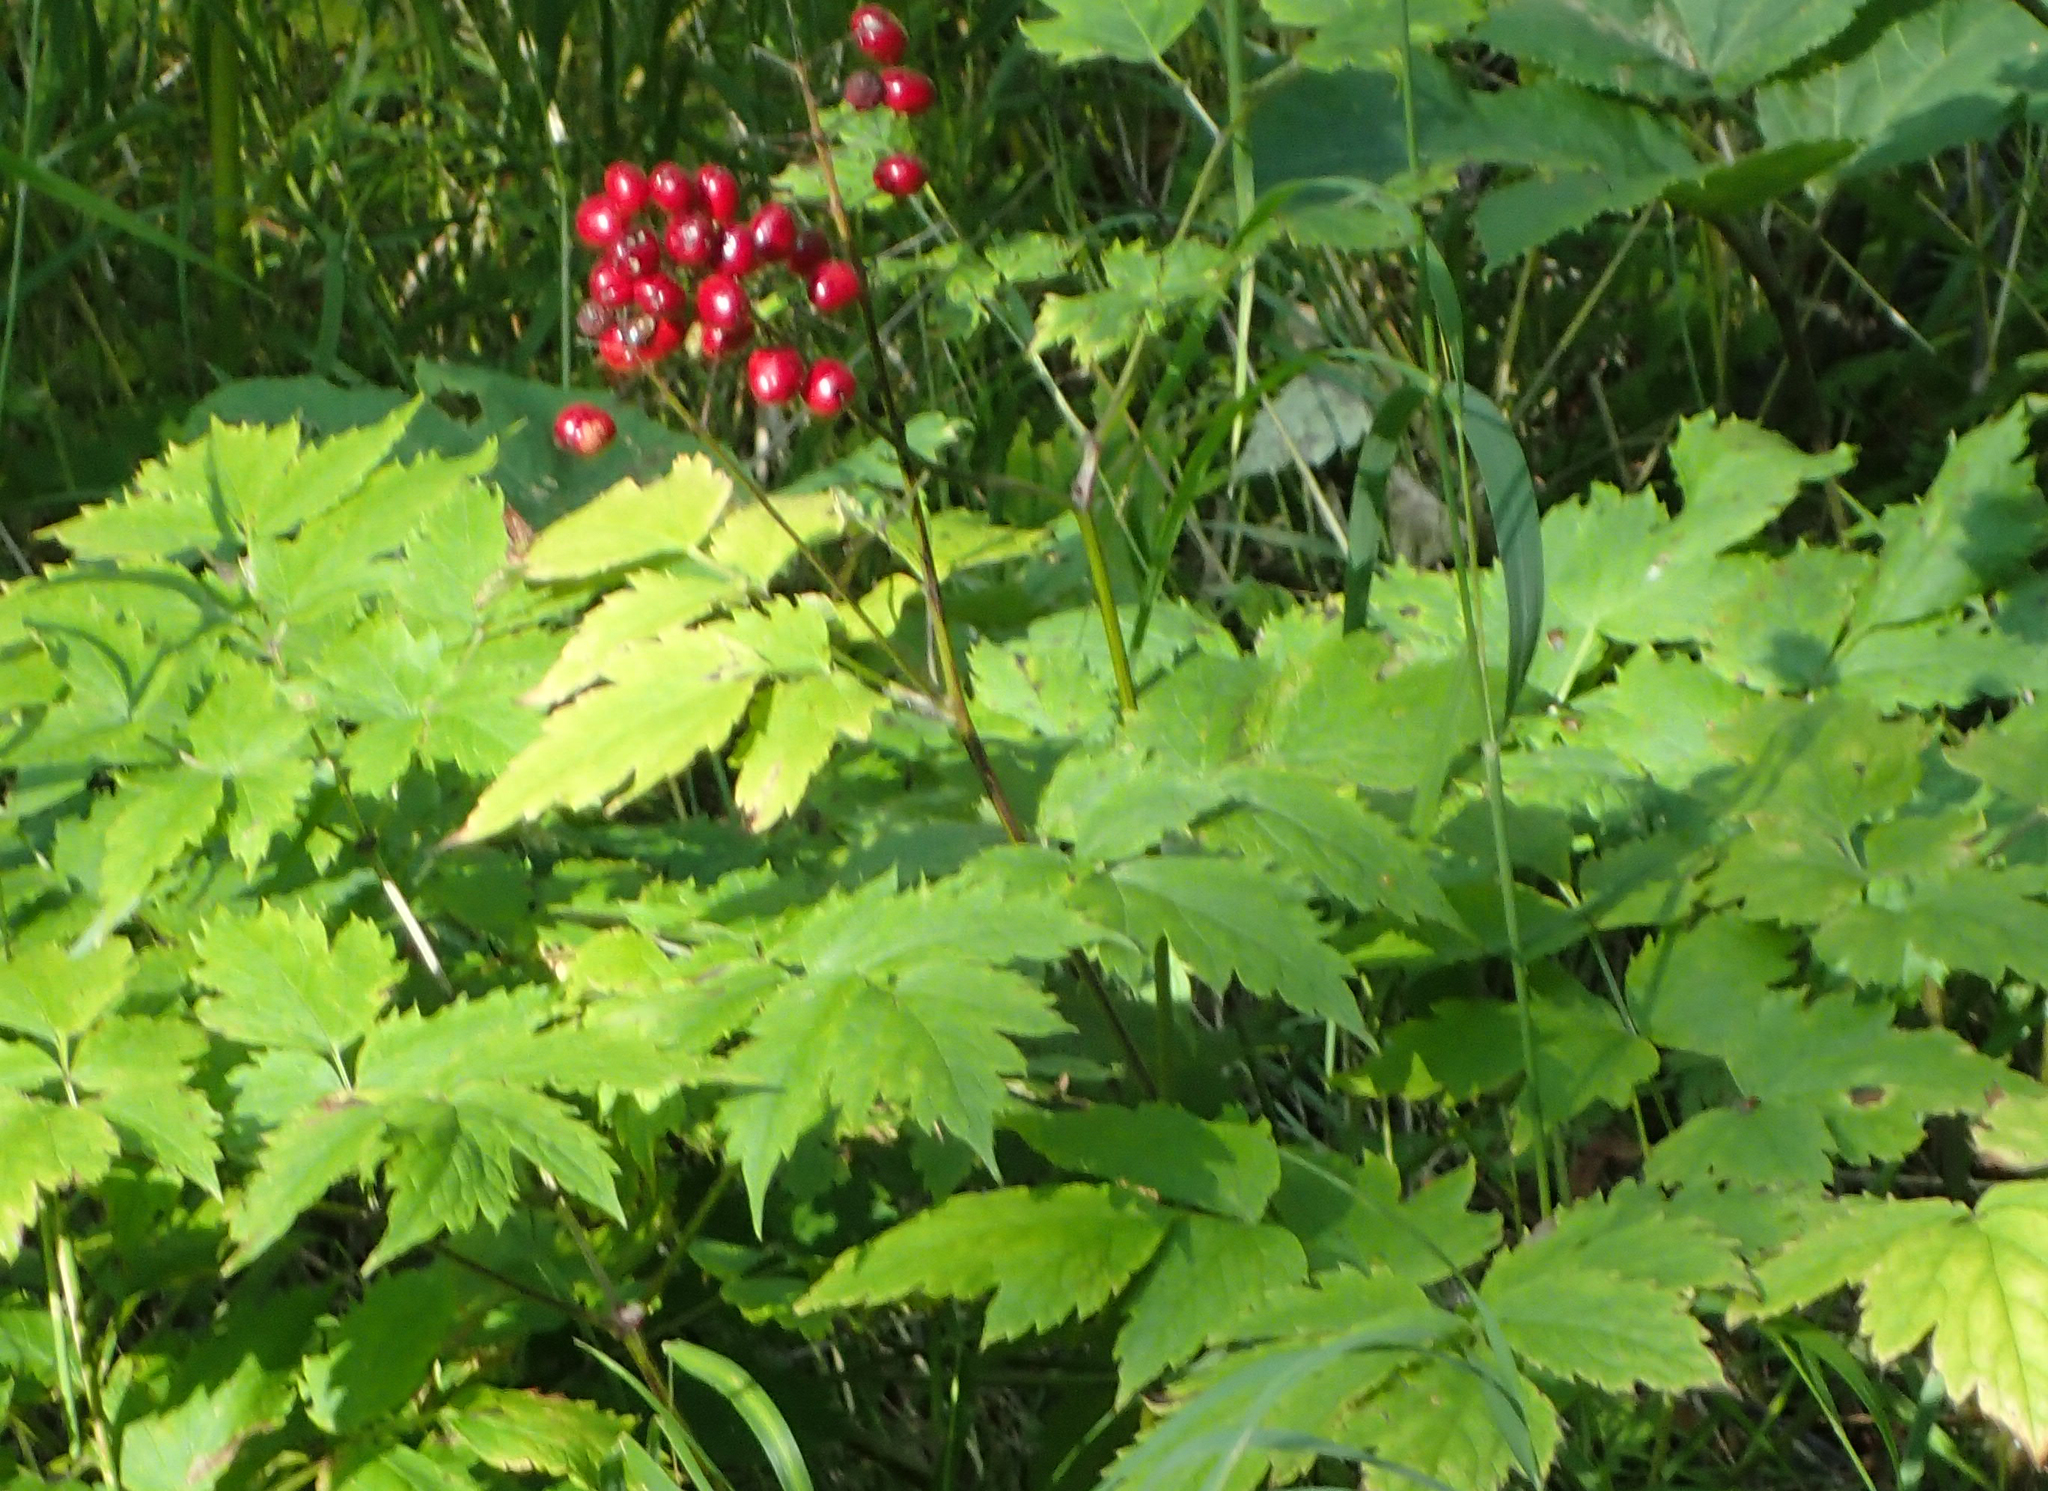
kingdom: Plantae
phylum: Tracheophyta
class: Magnoliopsida
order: Ranunculales
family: Ranunculaceae
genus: Actaea
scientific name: Actaea rubra
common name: Red baneberry
